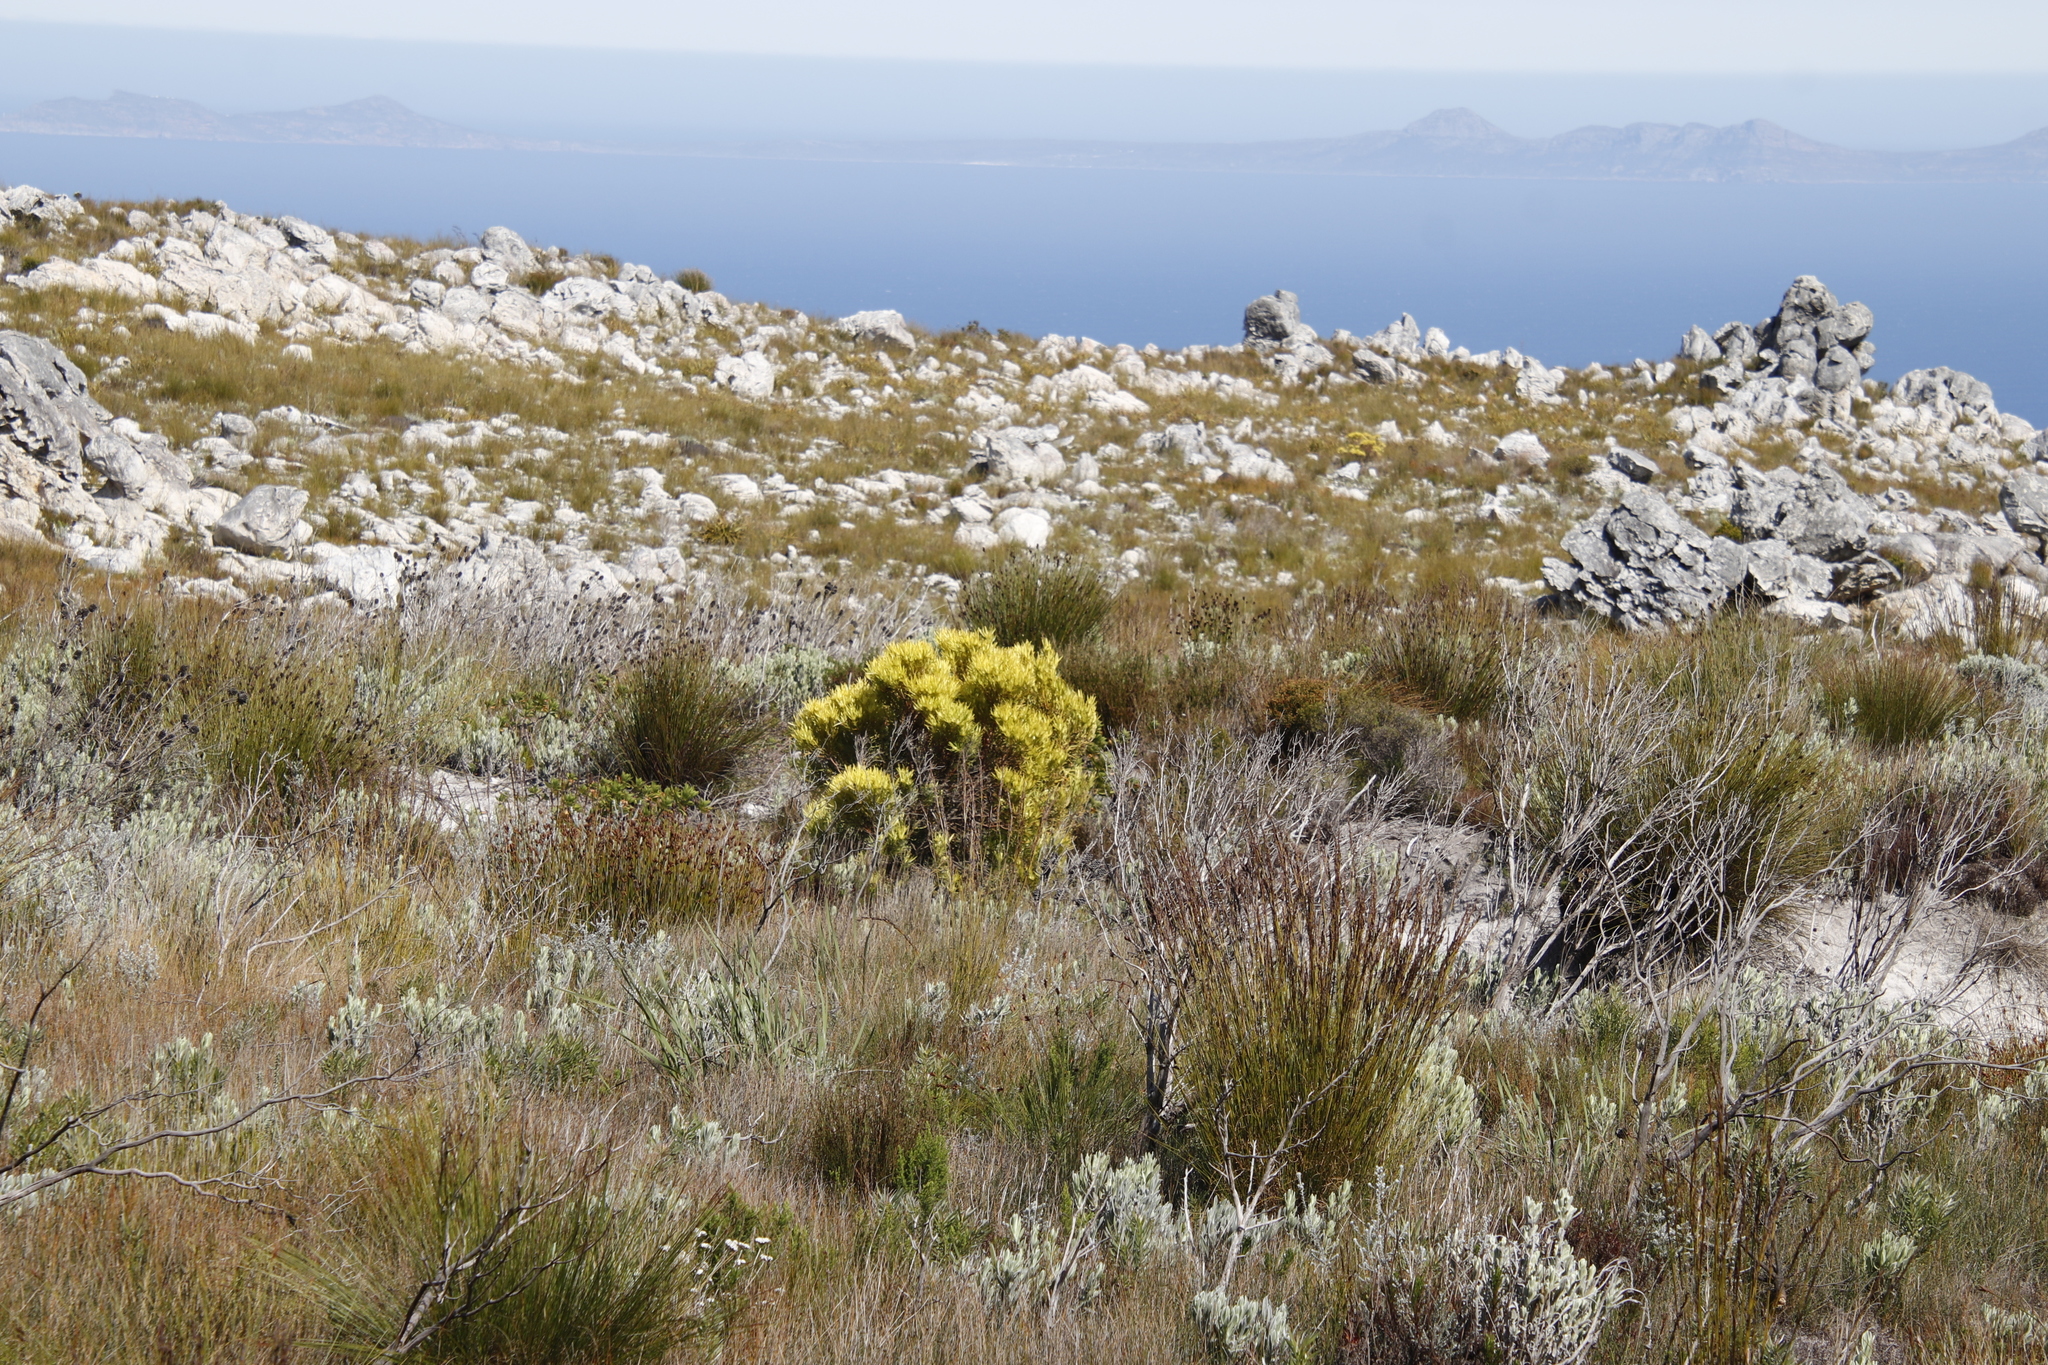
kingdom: Plantae
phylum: Tracheophyta
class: Magnoliopsida
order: Proteales
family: Proteaceae
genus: Leucadendron
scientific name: Leucadendron xanthoconus
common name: Sickle-leaf conebush
